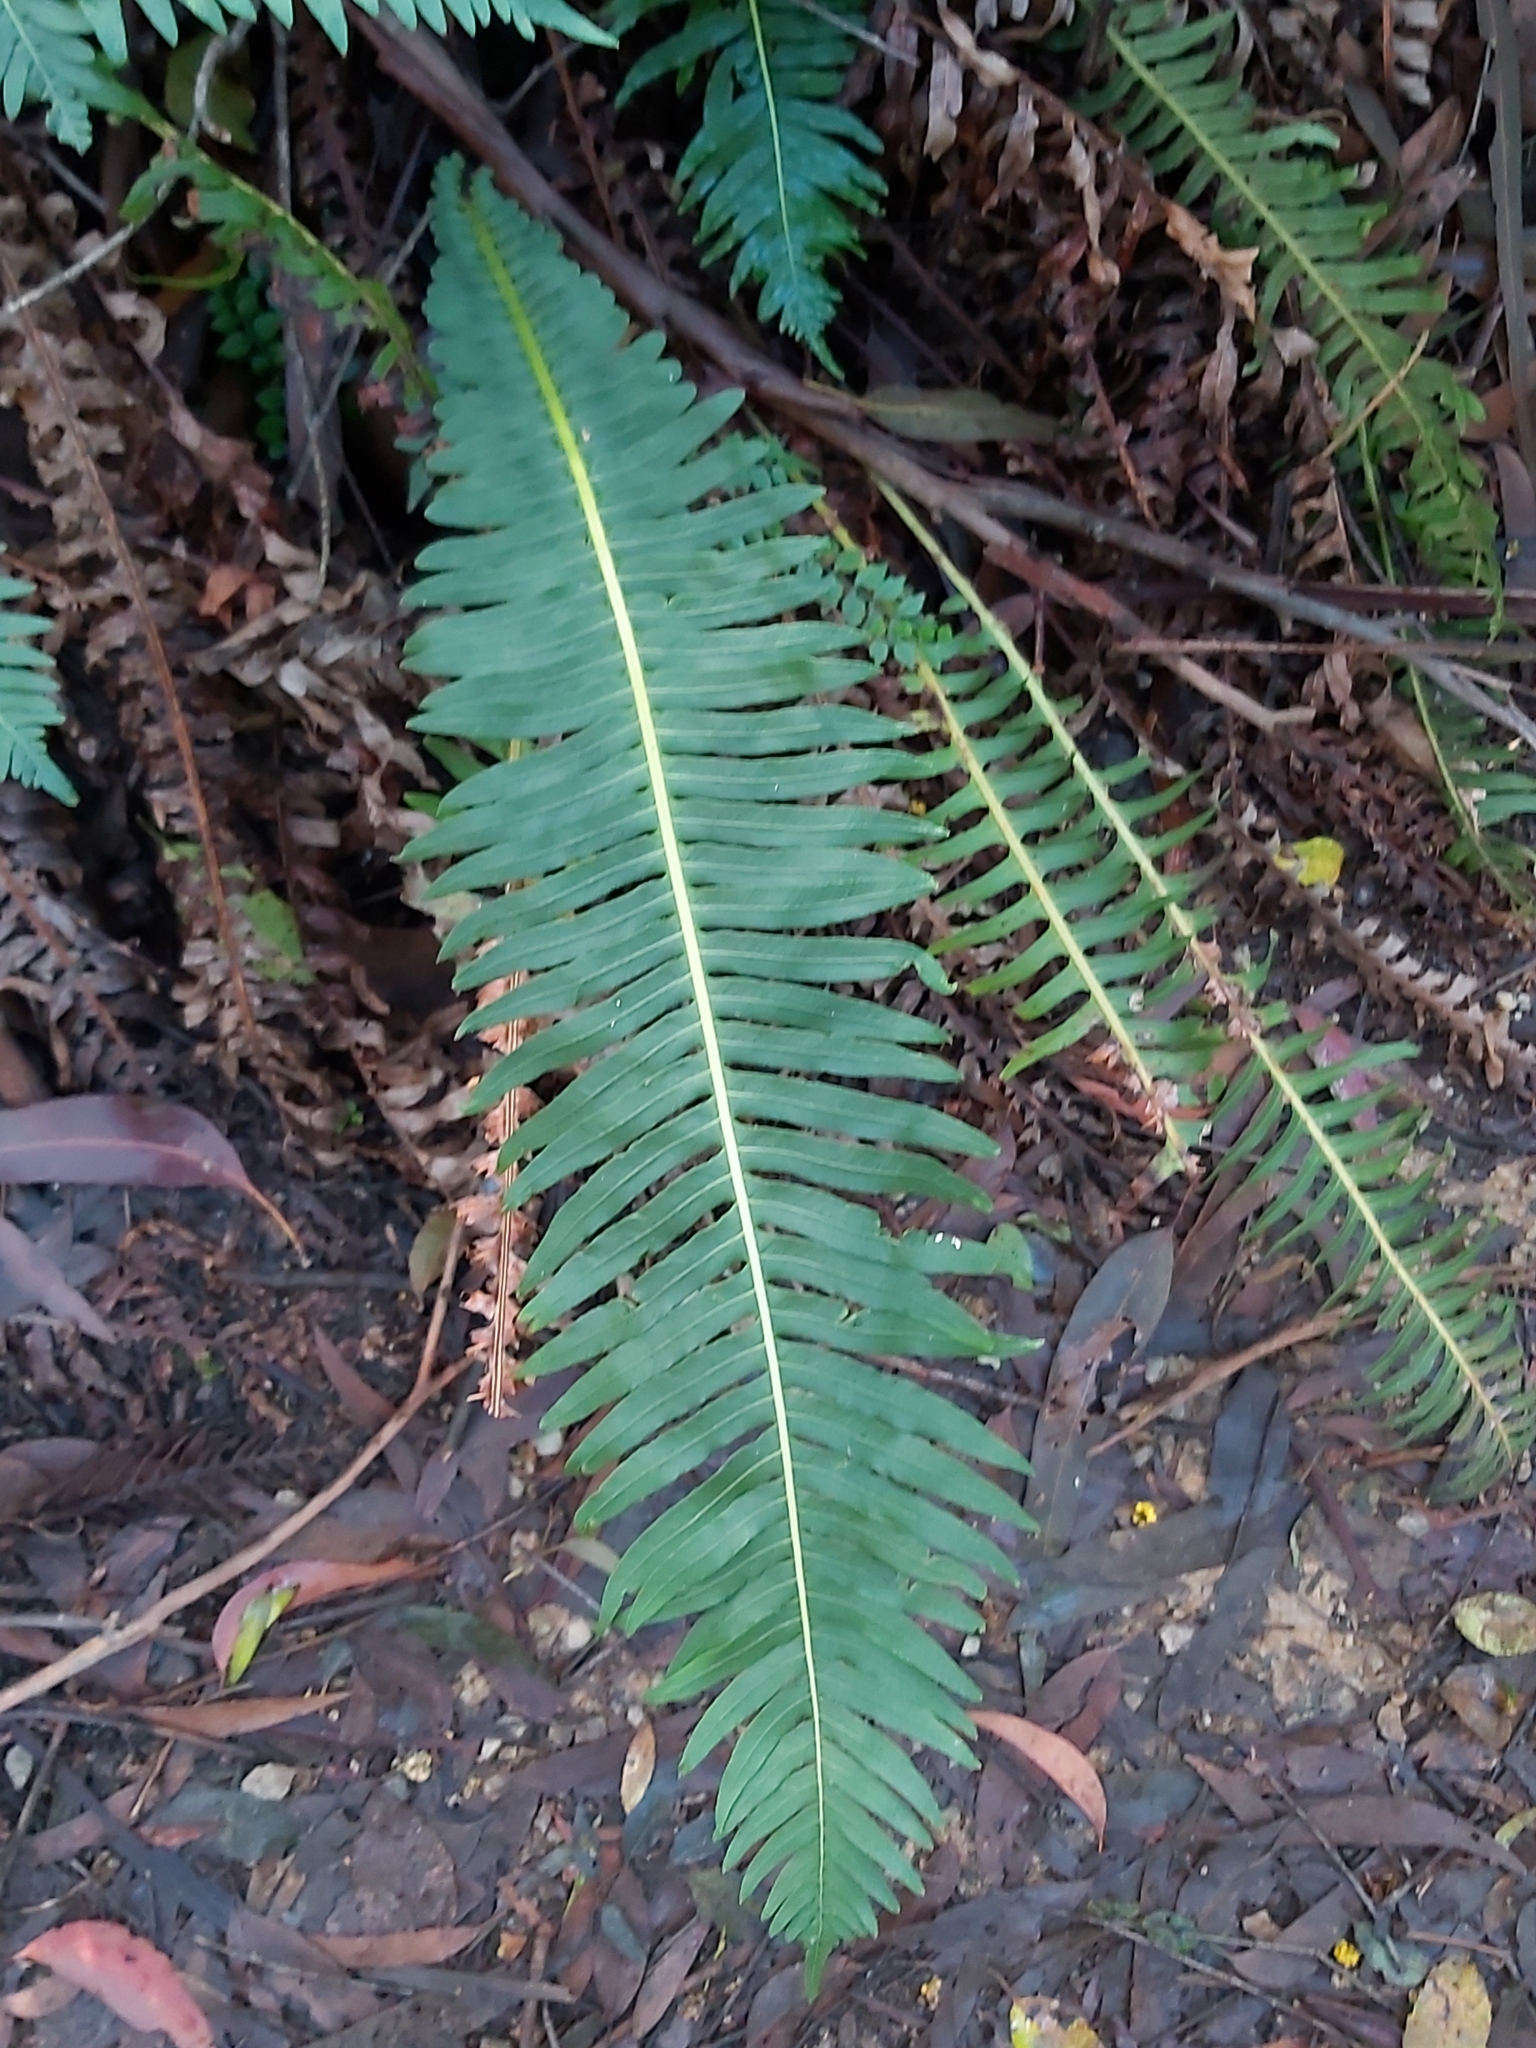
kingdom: Plantae
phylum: Tracheophyta
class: Polypodiopsida
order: Polypodiales
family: Blechnaceae
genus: Lomaria
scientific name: Lomaria nuda
